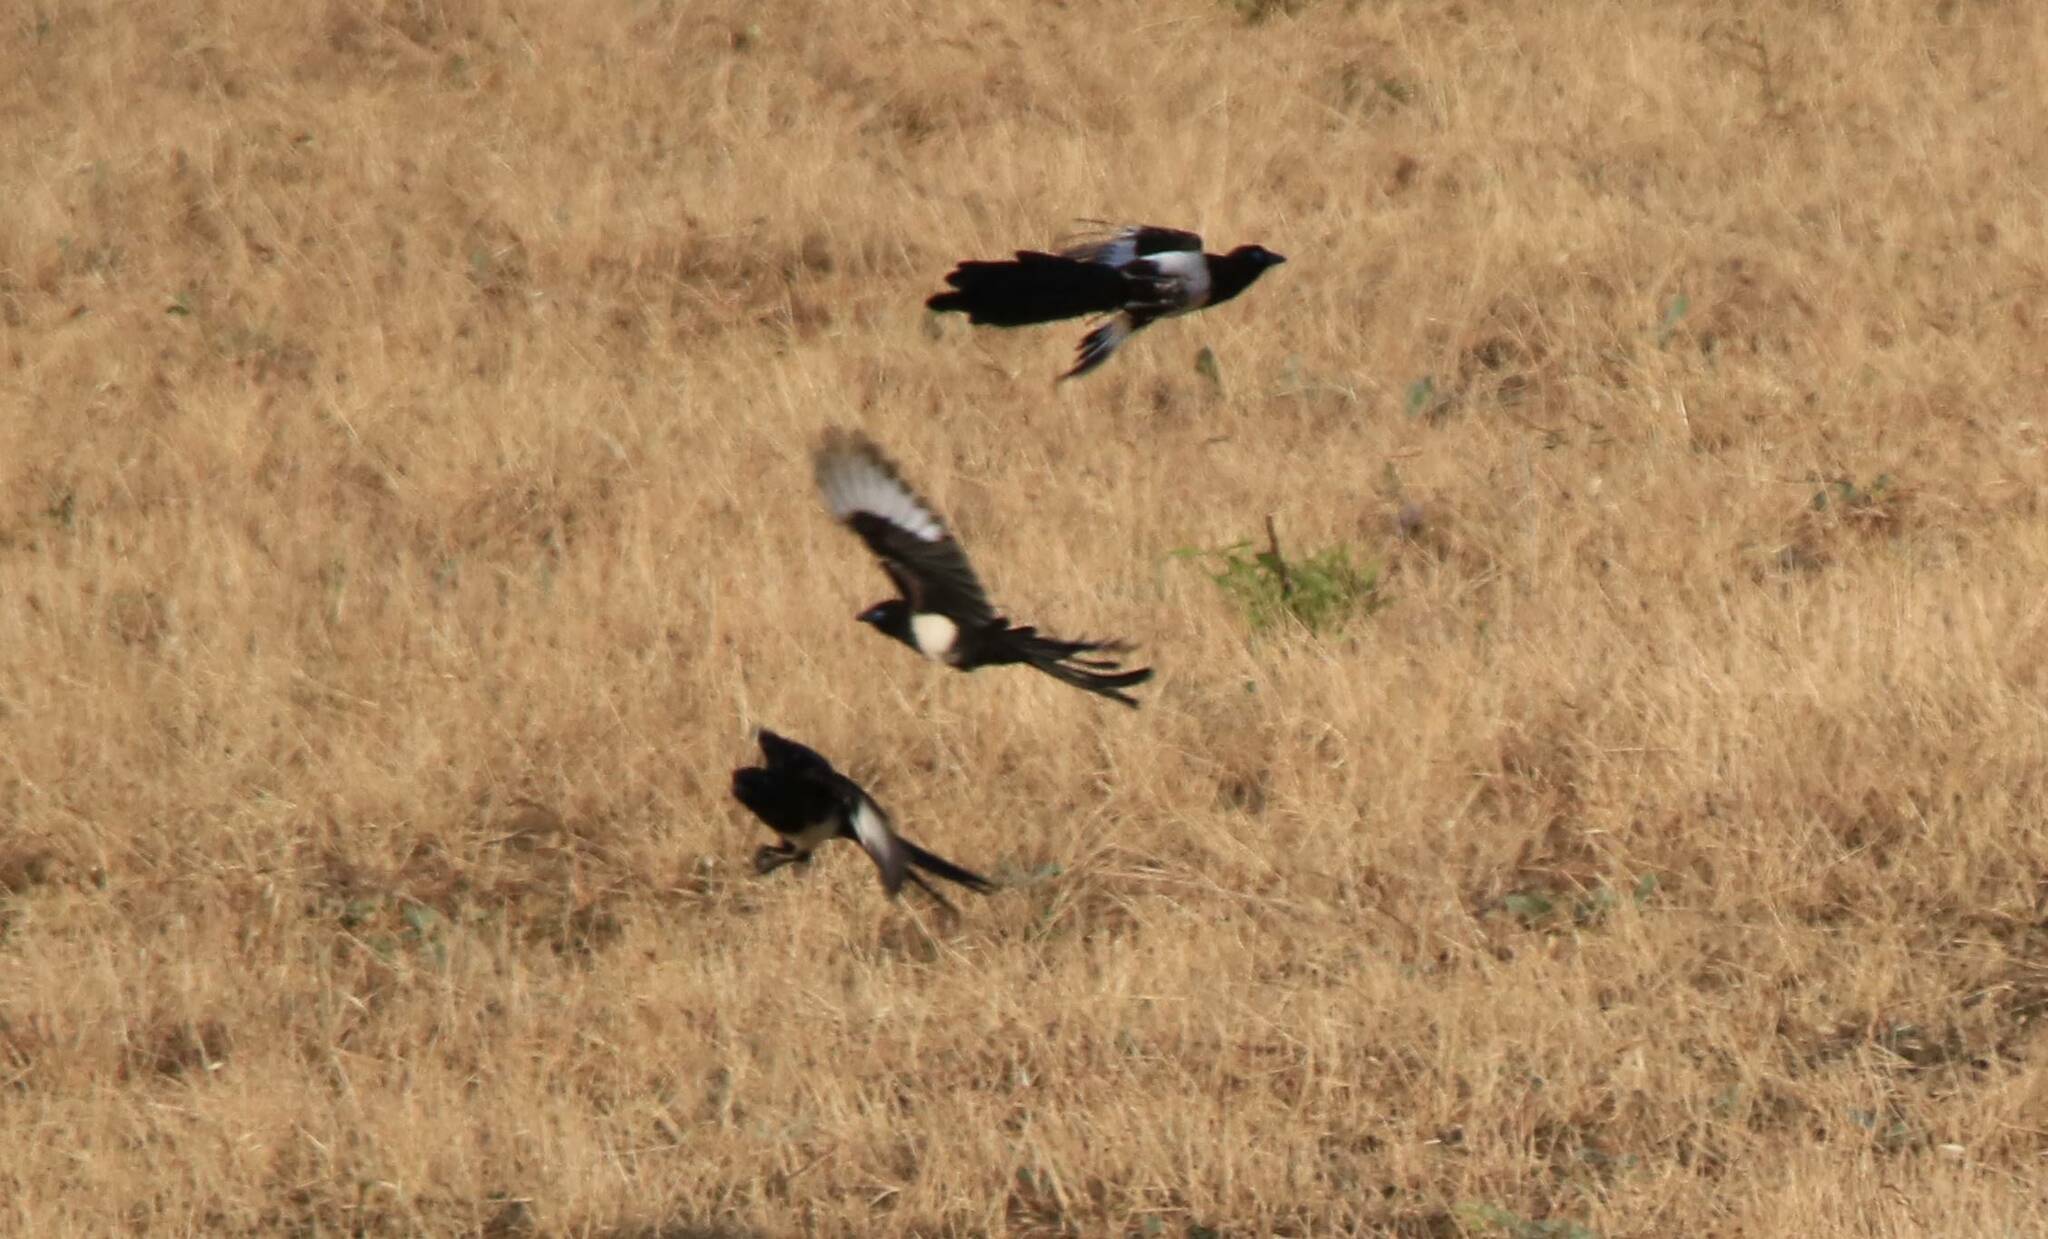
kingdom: Animalia
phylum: Chordata
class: Aves
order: Passeriformes
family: Corvidae
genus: Pica
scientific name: Pica mauritanica
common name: Maghreb magpie
